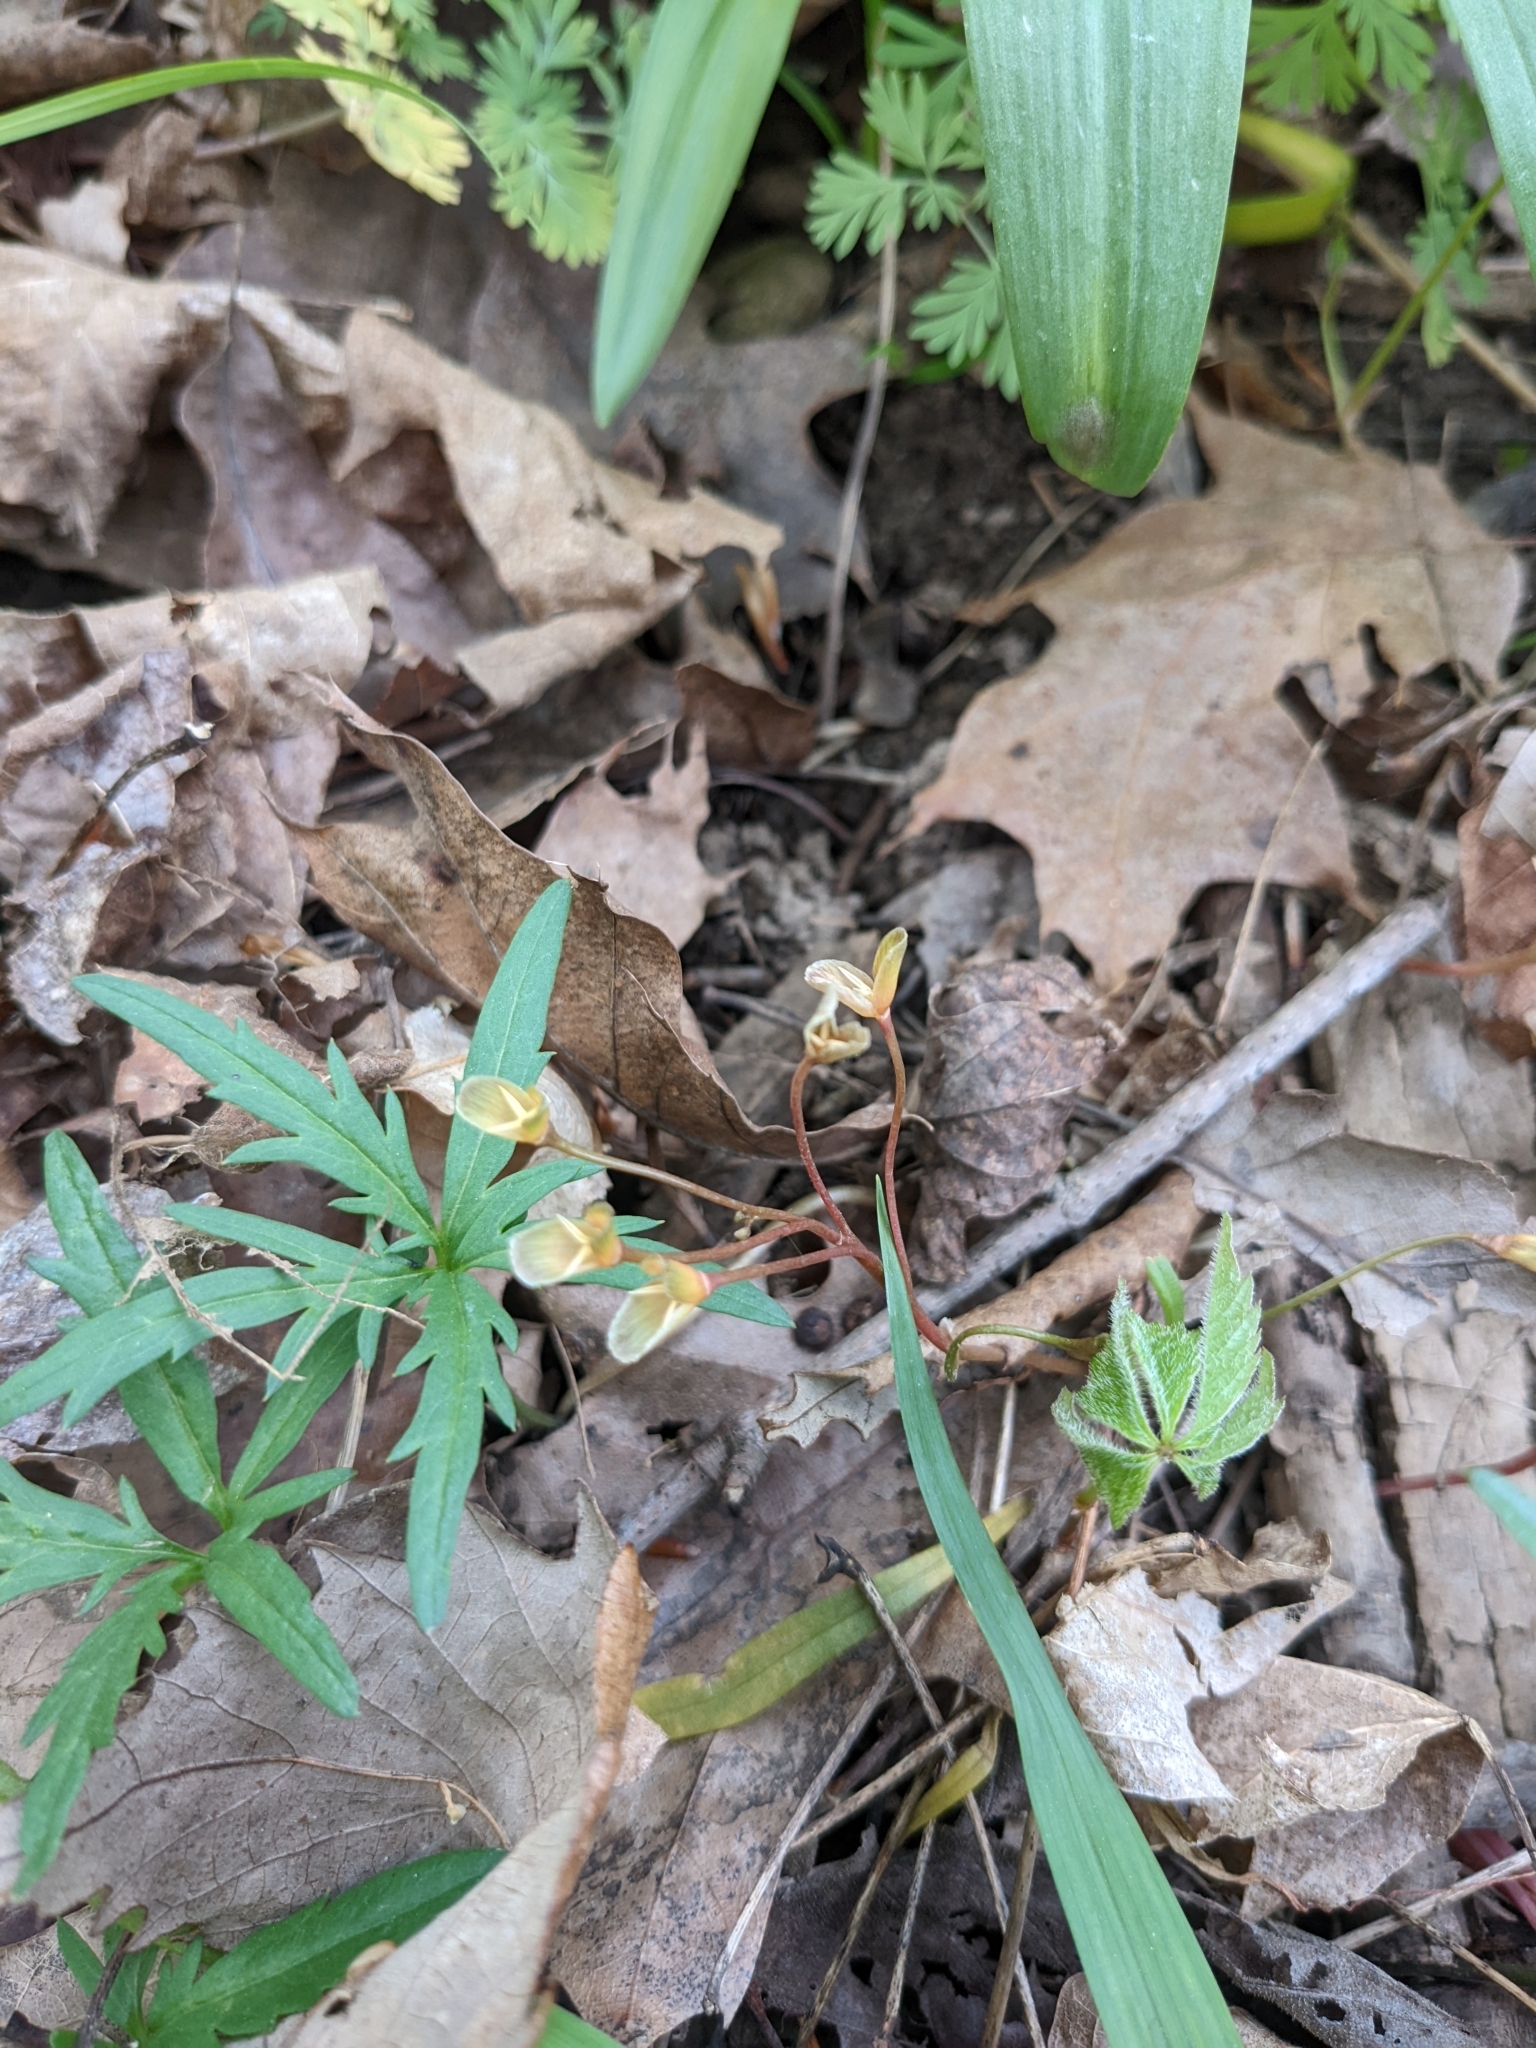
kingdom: Plantae
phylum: Tracheophyta
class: Magnoliopsida
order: Caryophyllales
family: Montiaceae
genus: Claytonia
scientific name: Claytonia virginica
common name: Virginia springbeauty
